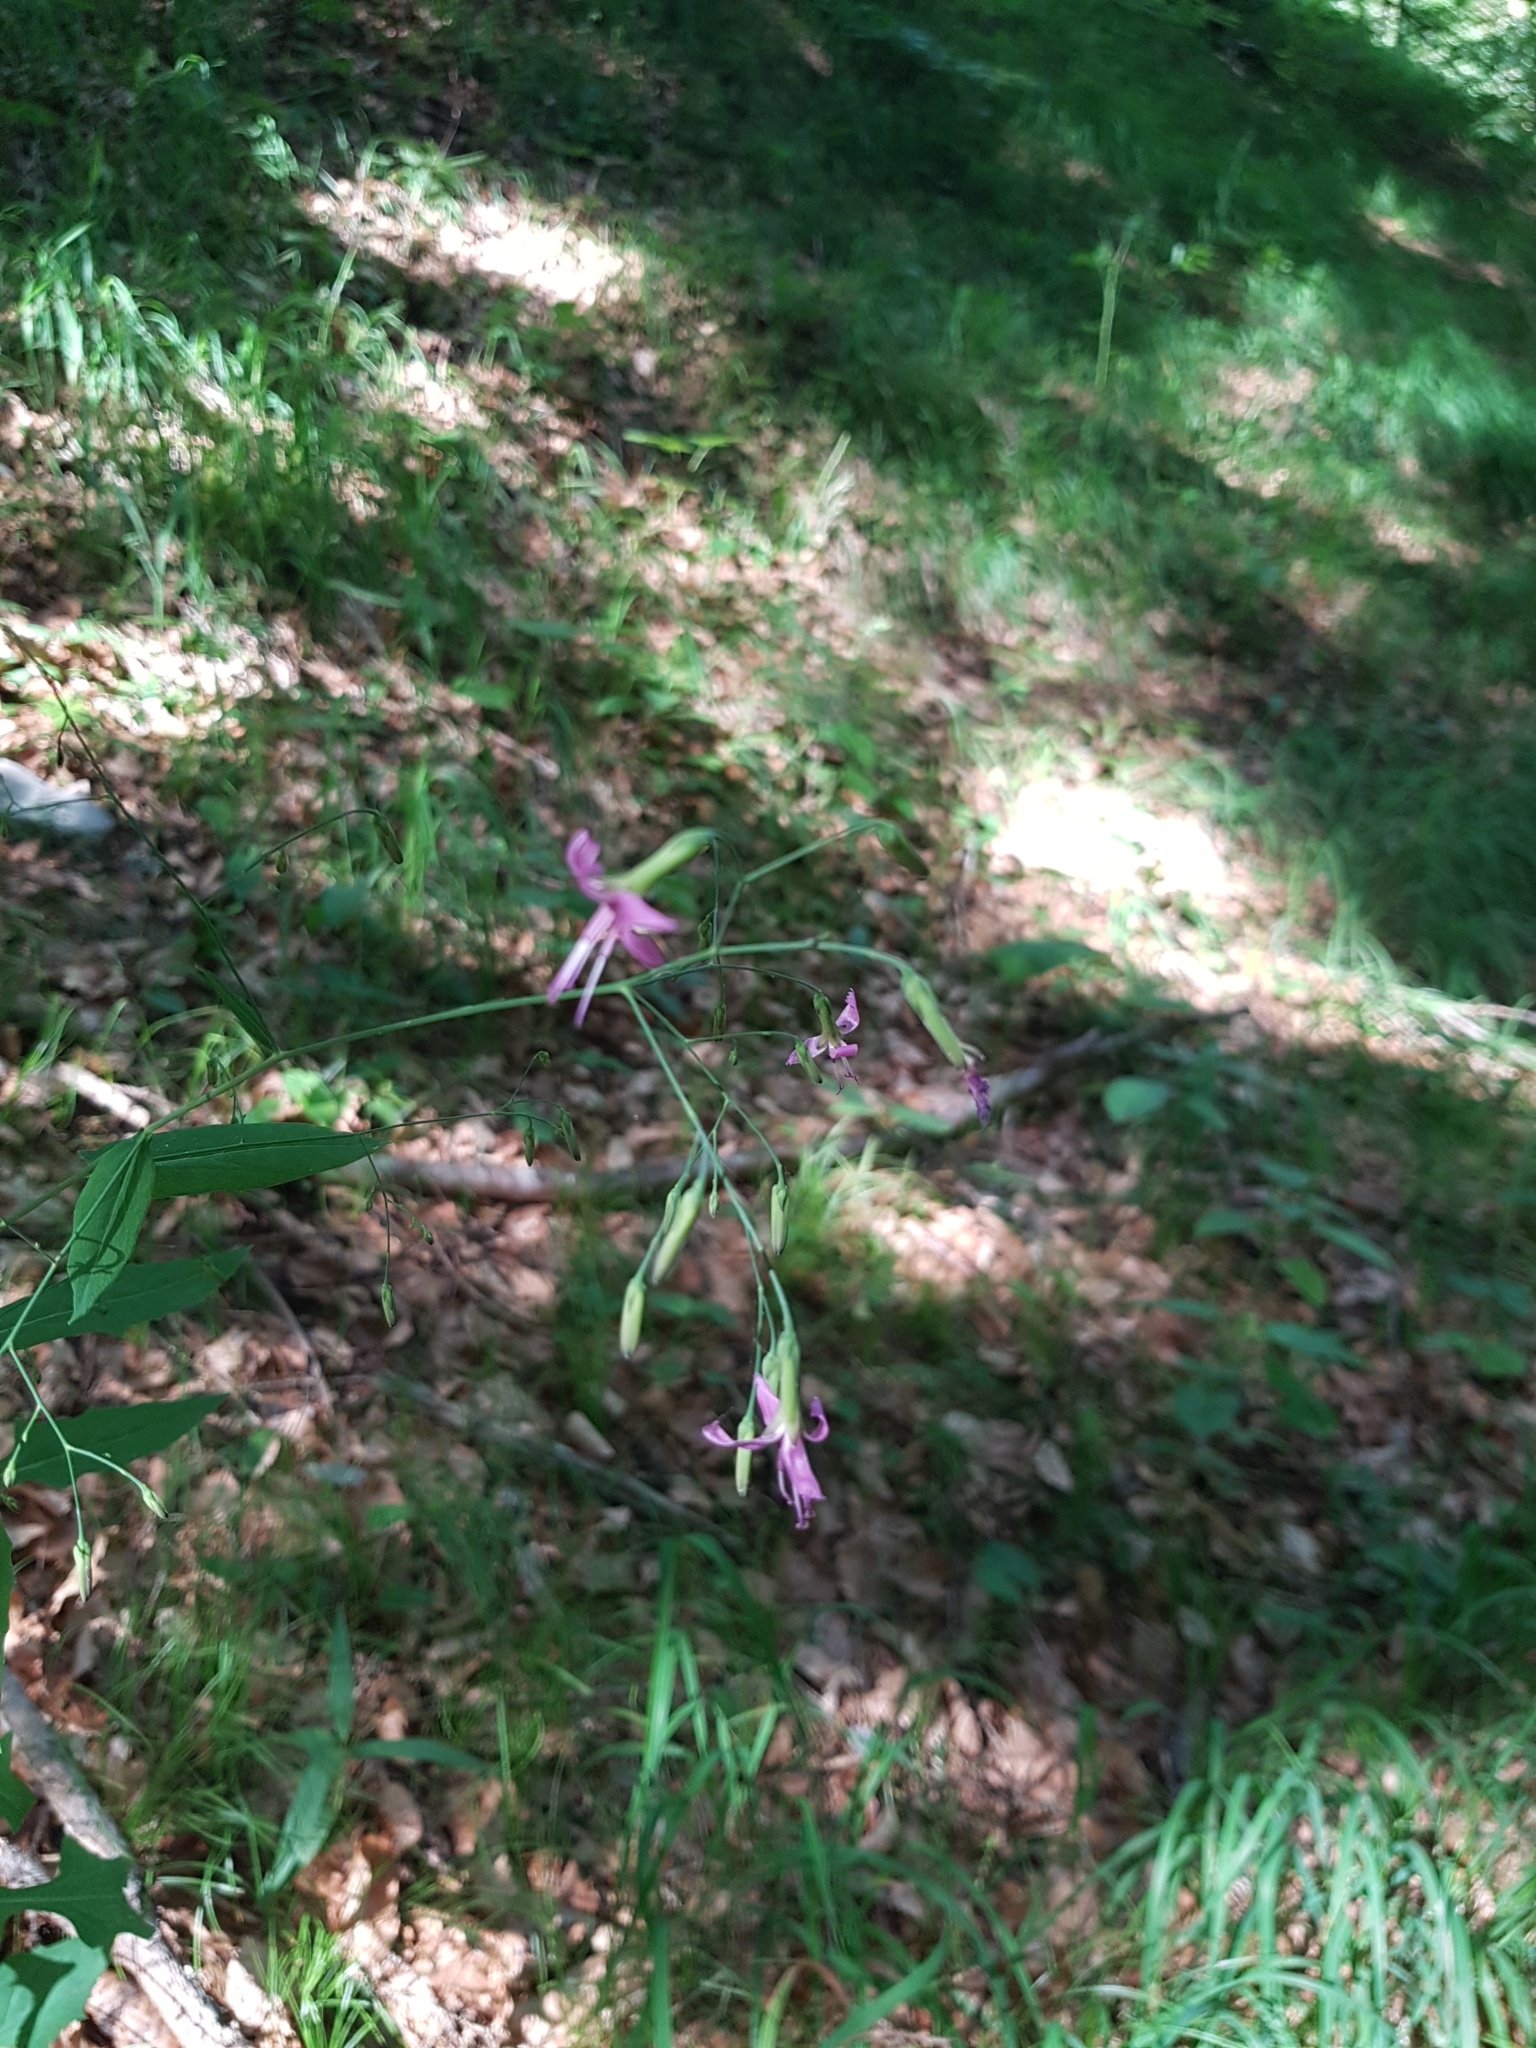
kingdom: Plantae
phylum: Tracheophyta
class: Magnoliopsida
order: Asterales
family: Asteraceae
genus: Prenanthes
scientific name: Prenanthes purpurea
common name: Purple lettuce
